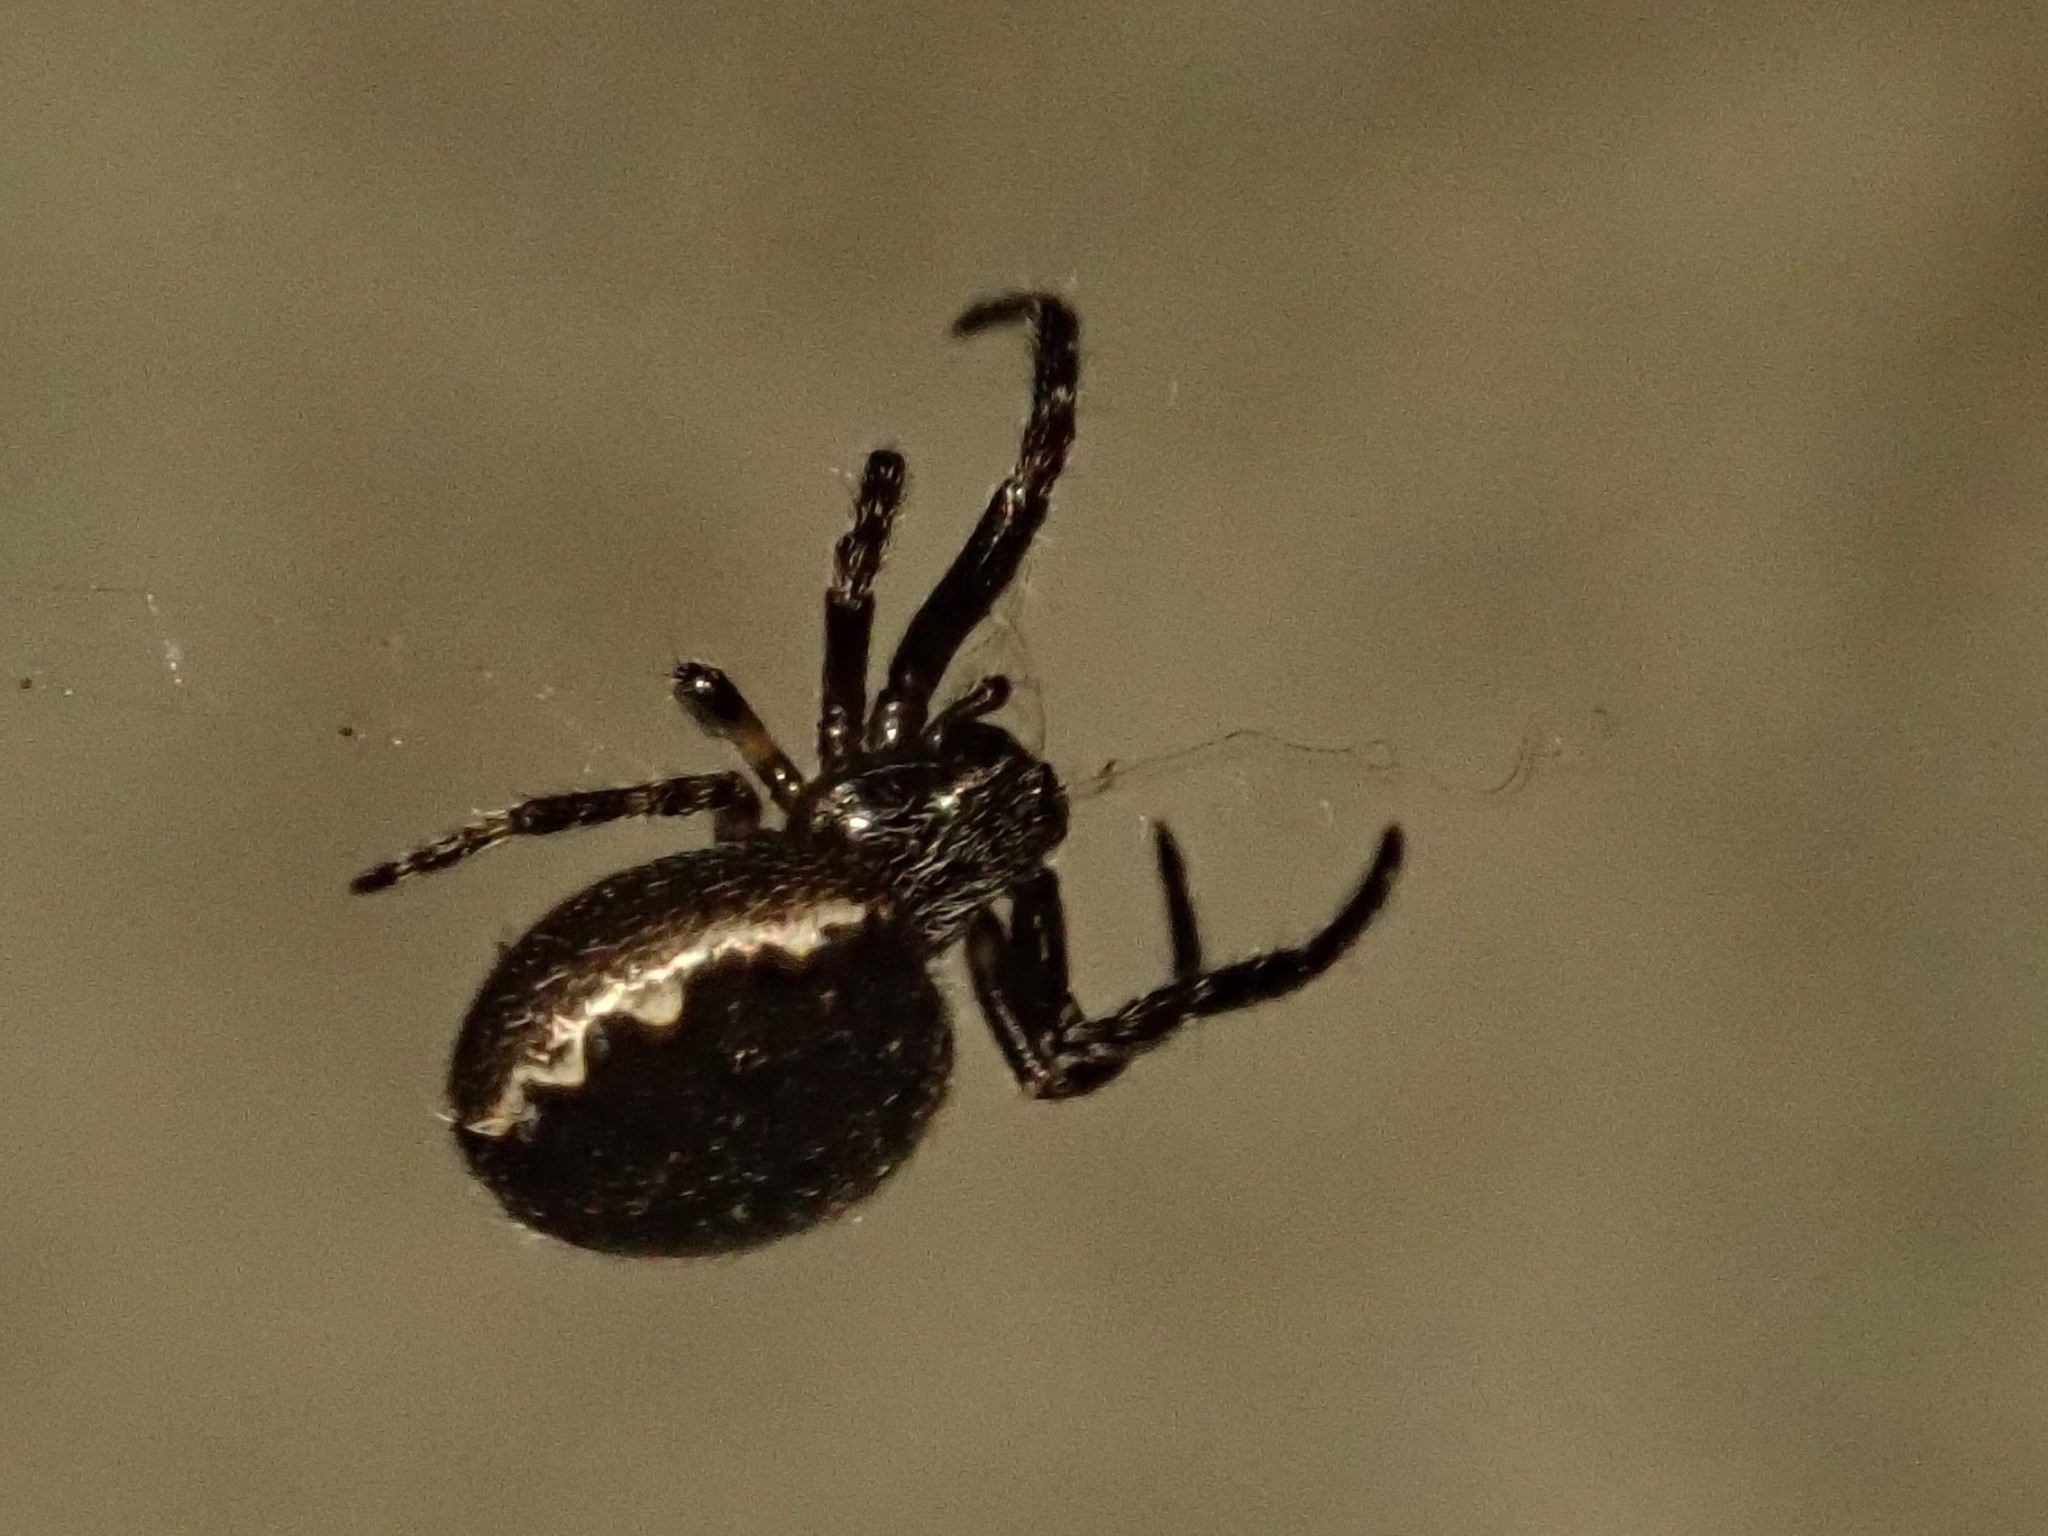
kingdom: Animalia
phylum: Arthropoda
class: Arachnida
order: Araneae
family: Araneidae
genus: Nuctenea
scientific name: Nuctenea umbratica
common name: Toad spider
